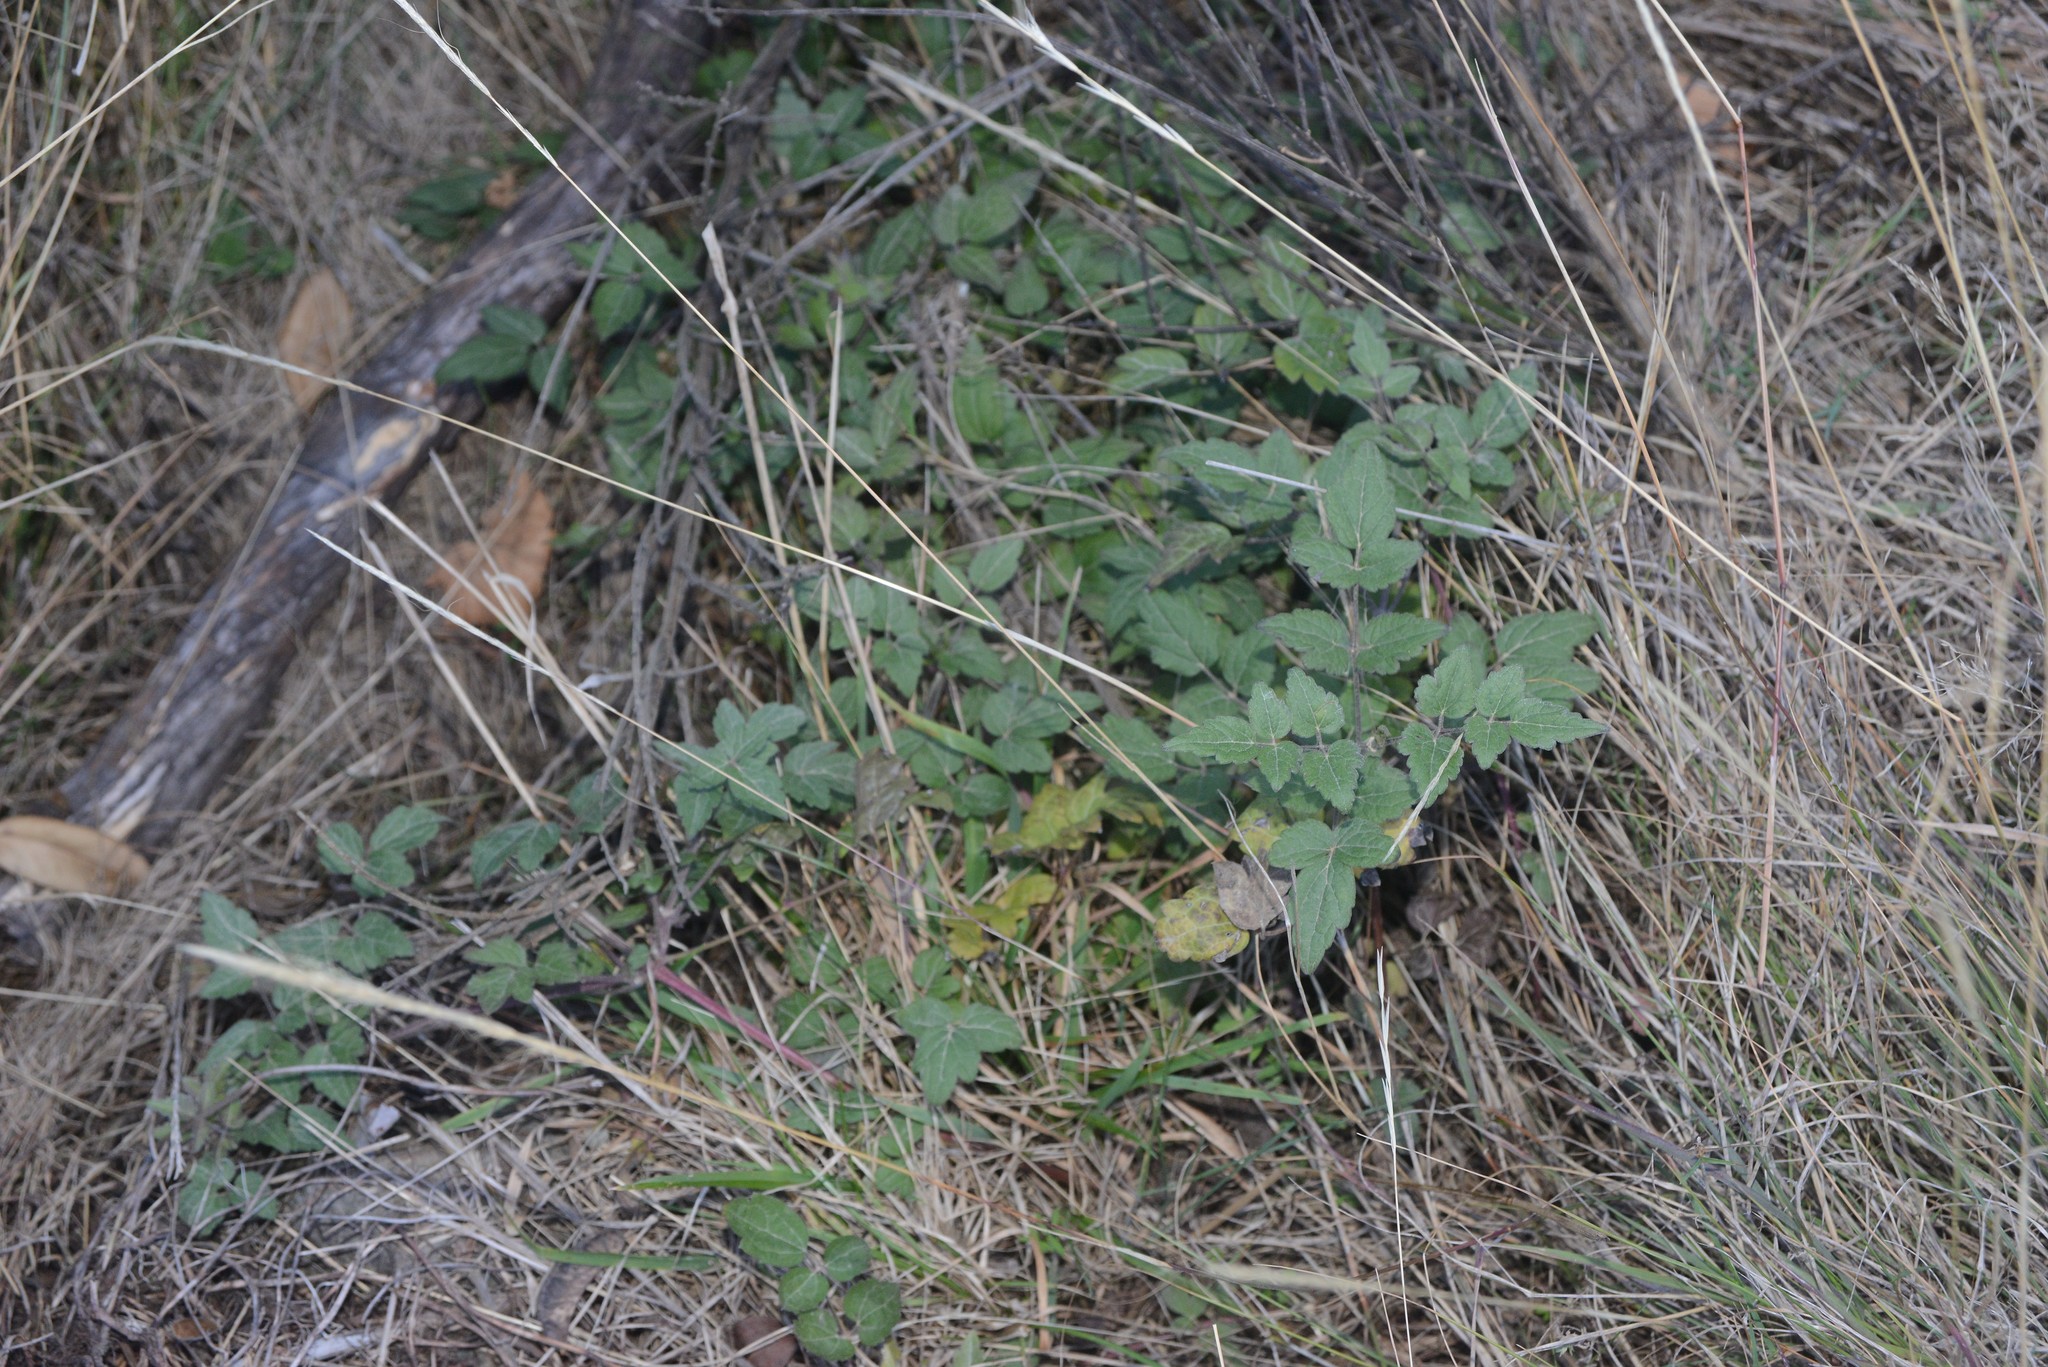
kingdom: Plantae
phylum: Tracheophyta
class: Magnoliopsida
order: Ranunculales
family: Ranunculaceae
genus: Clematis
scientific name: Clematis vitalba
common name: Evergreen clematis
